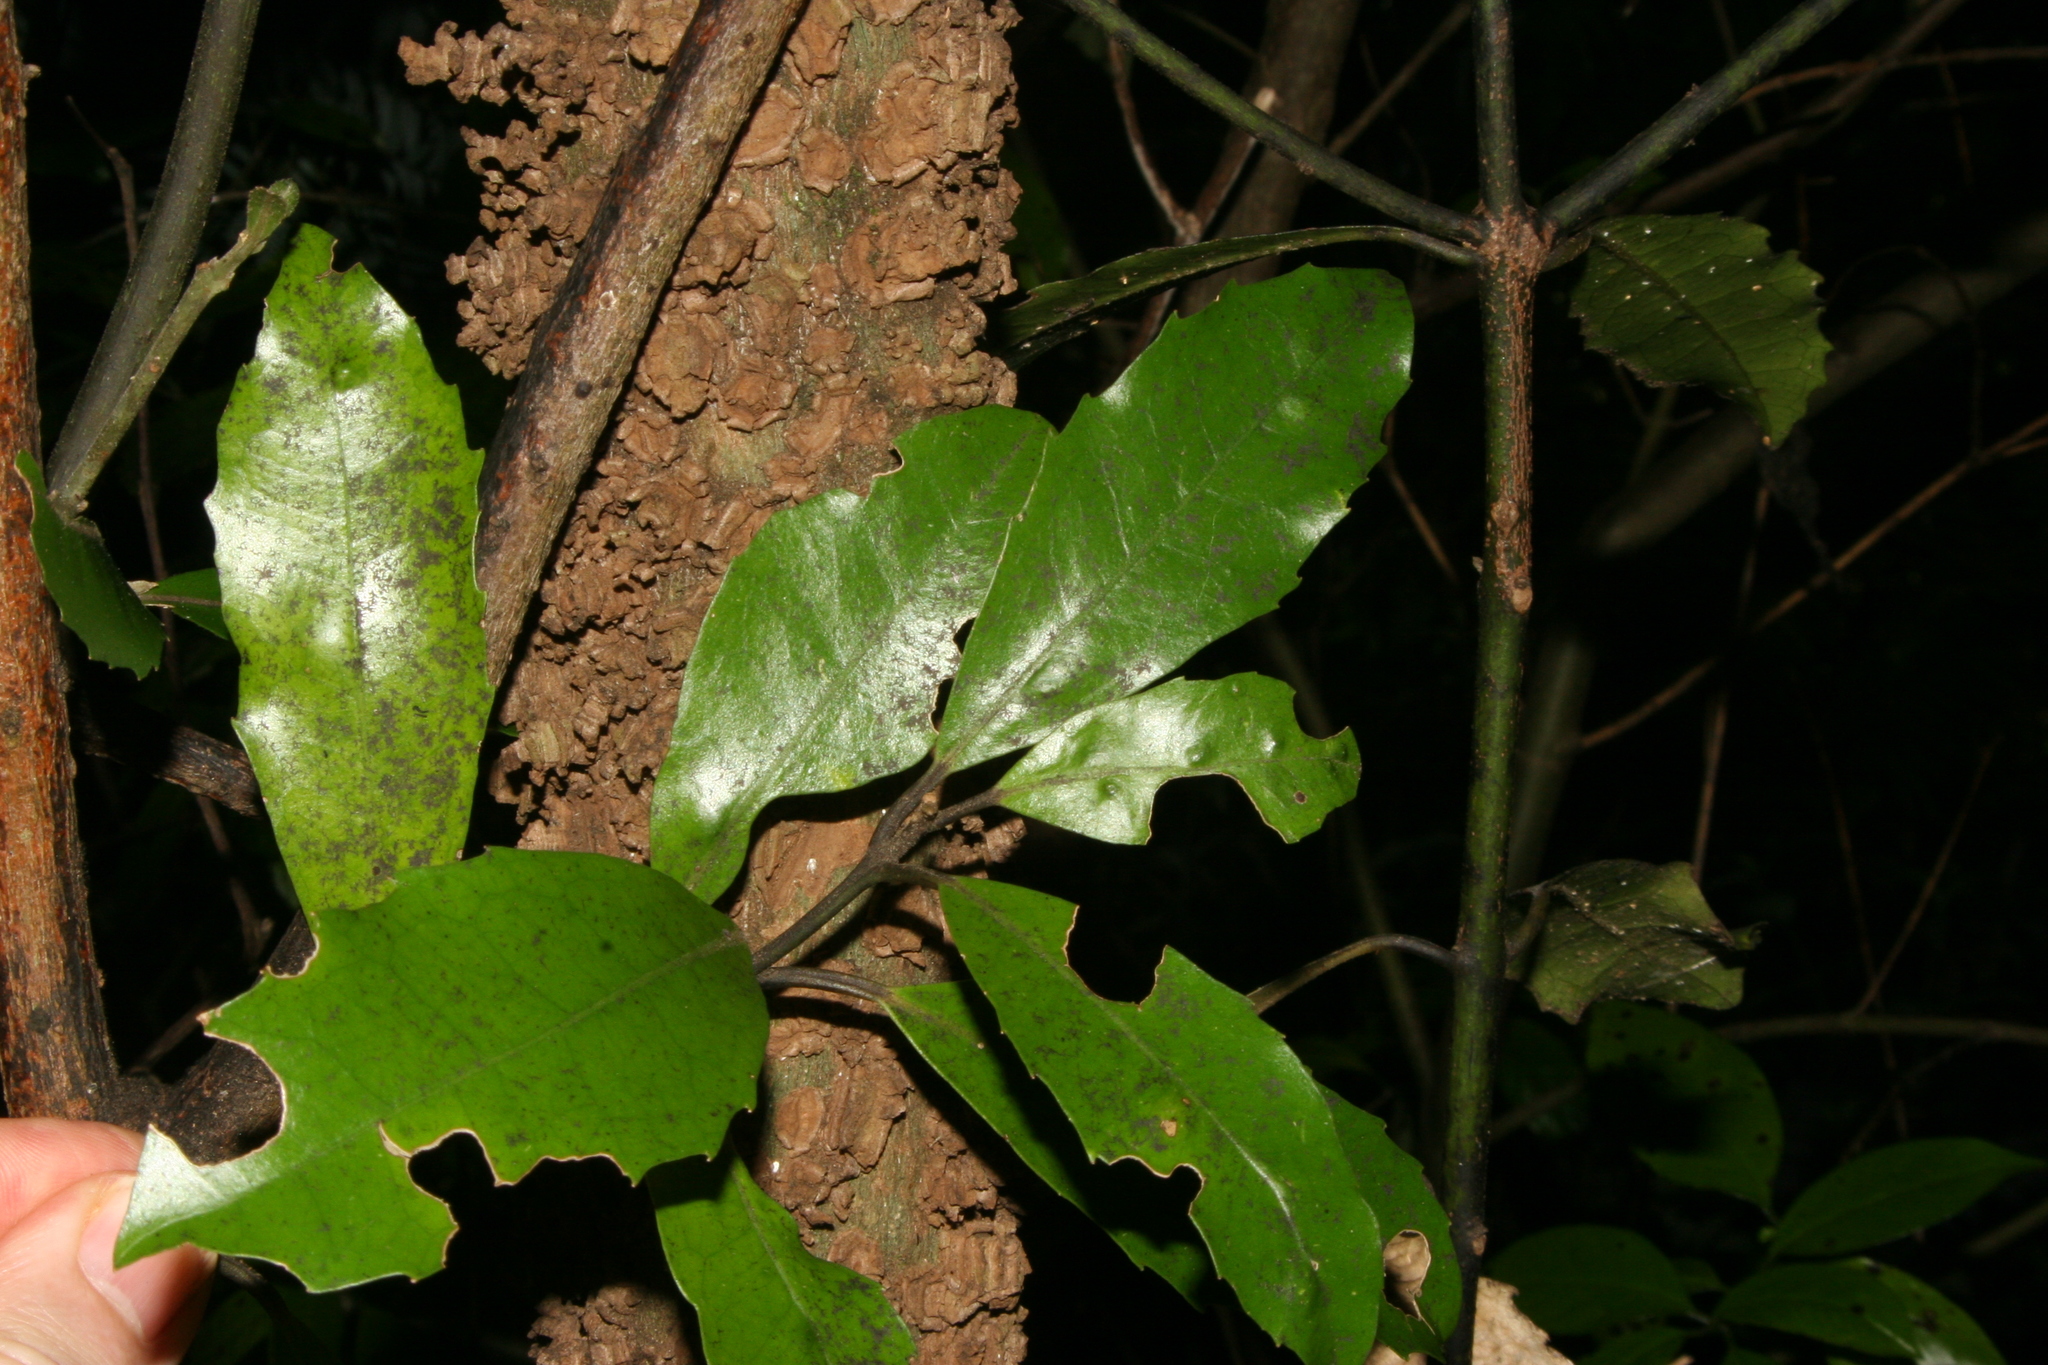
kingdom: Plantae
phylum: Tracheophyta
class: Magnoliopsida
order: Laurales
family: Monimiaceae
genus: Hedycarya
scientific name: Hedycarya arborea
